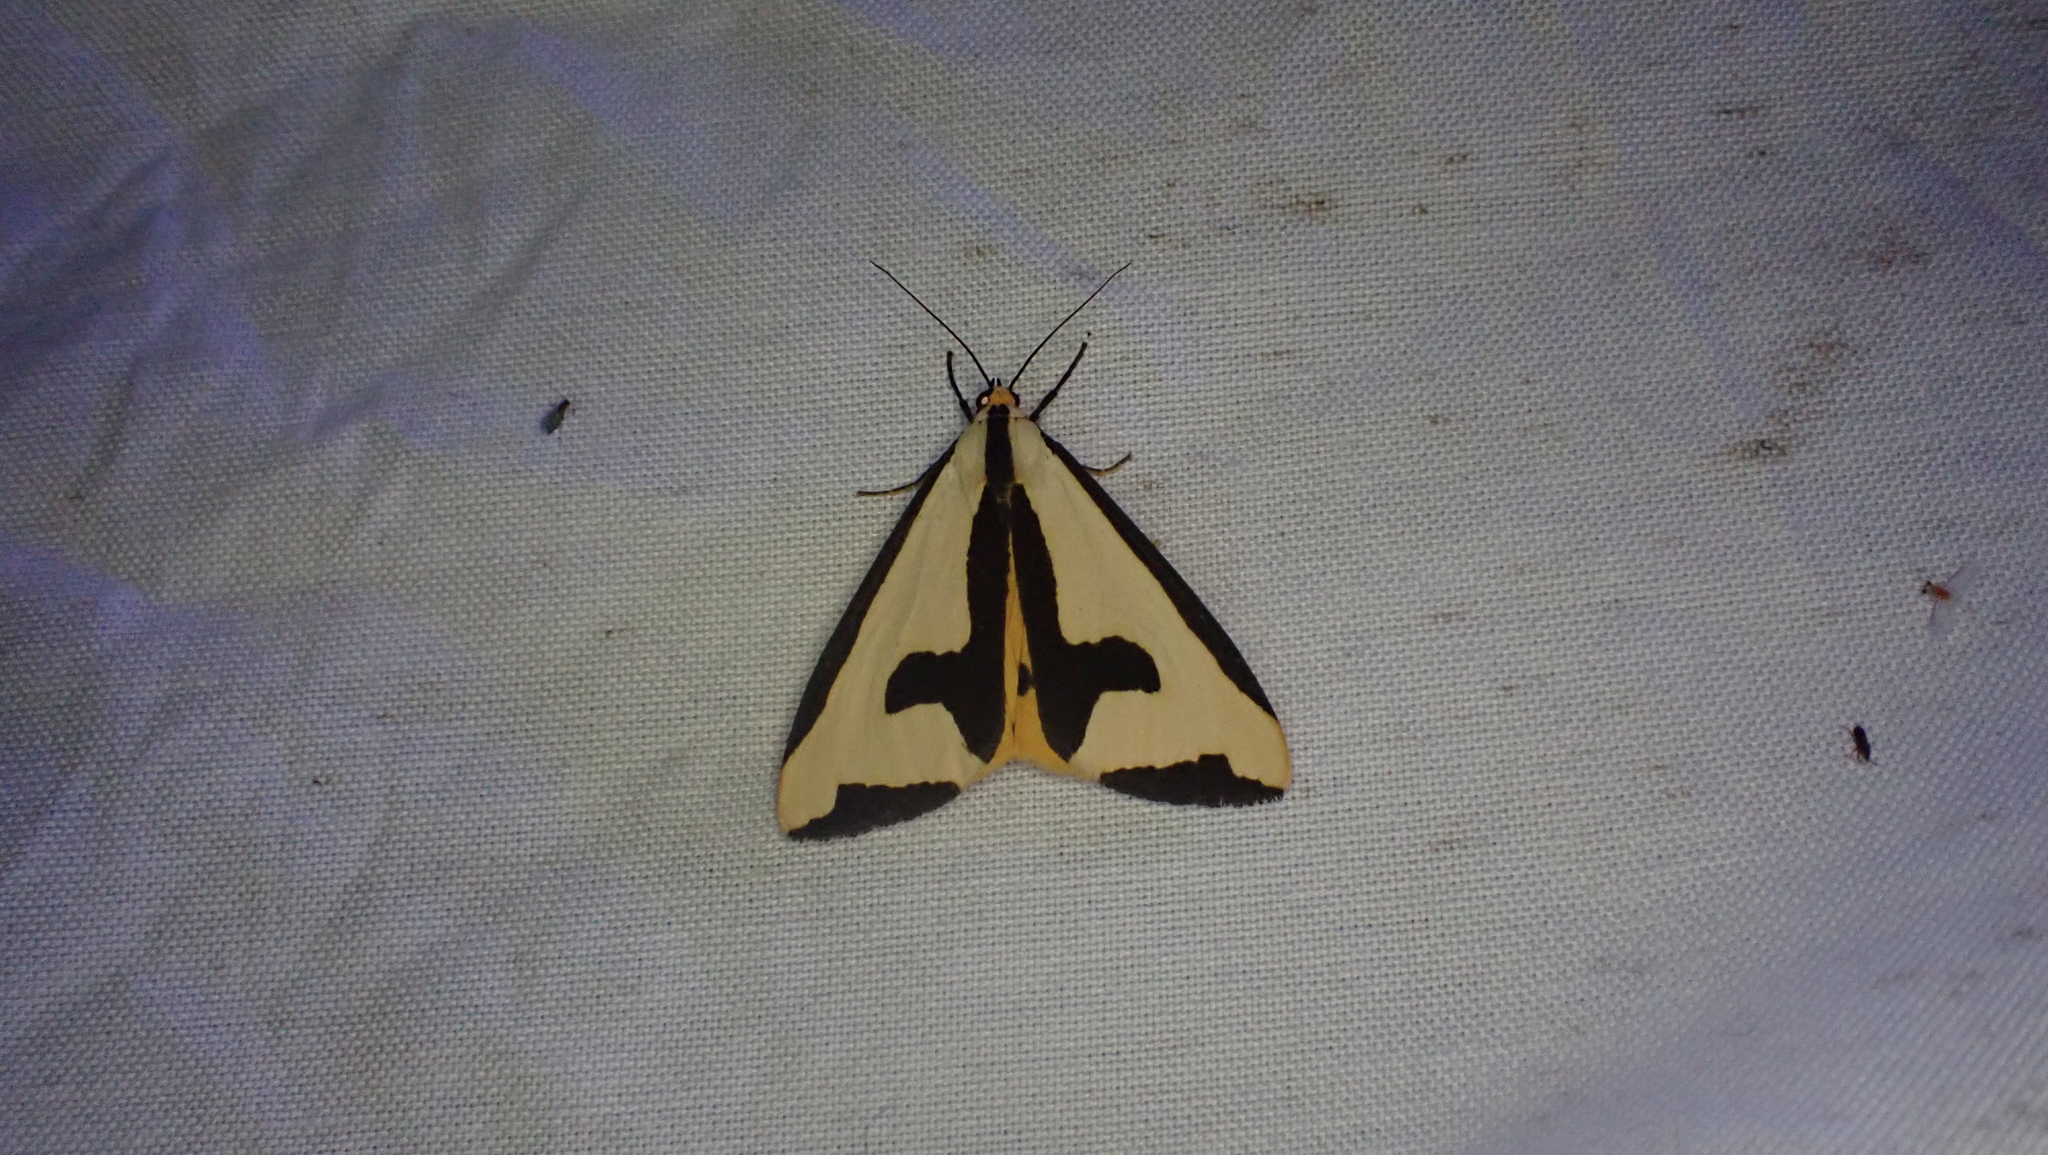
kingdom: Animalia
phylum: Arthropoda
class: Insecta
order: Lepidoptera
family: Erebidae
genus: Haploa
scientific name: Haploa clymene
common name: Clymene moth
